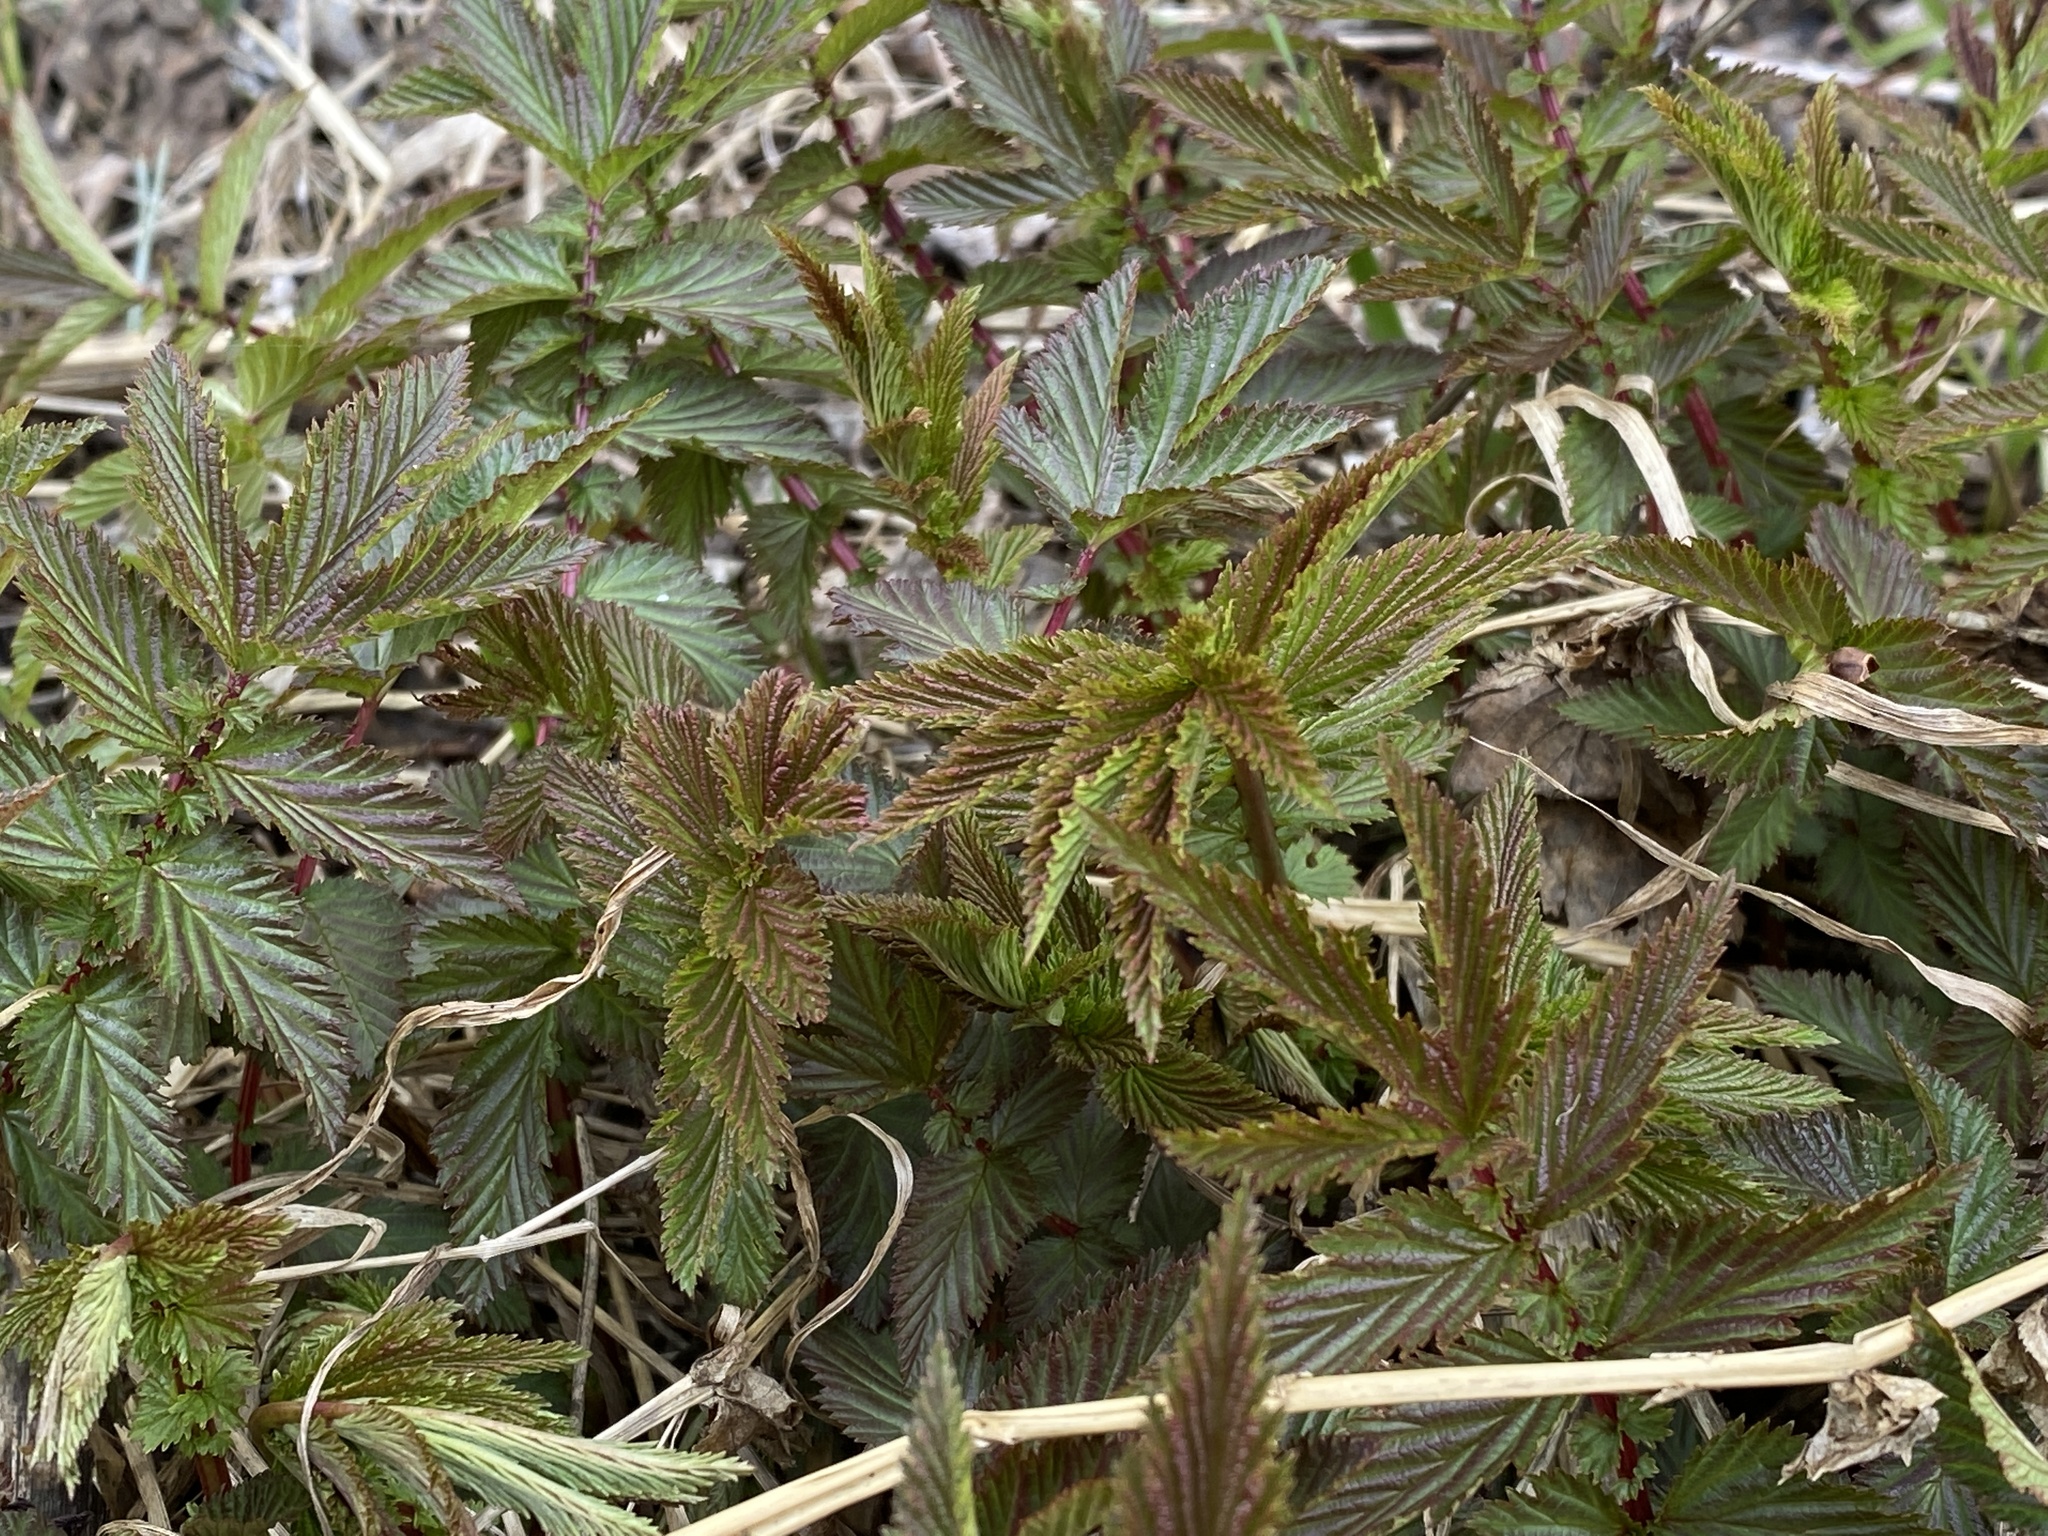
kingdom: Plantae
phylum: Tracheophyta
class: Magnoliopsida
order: Rosales
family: Rosaceae
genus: Filipendula
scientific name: Filipendula ulmaria
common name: Meadowsweet
